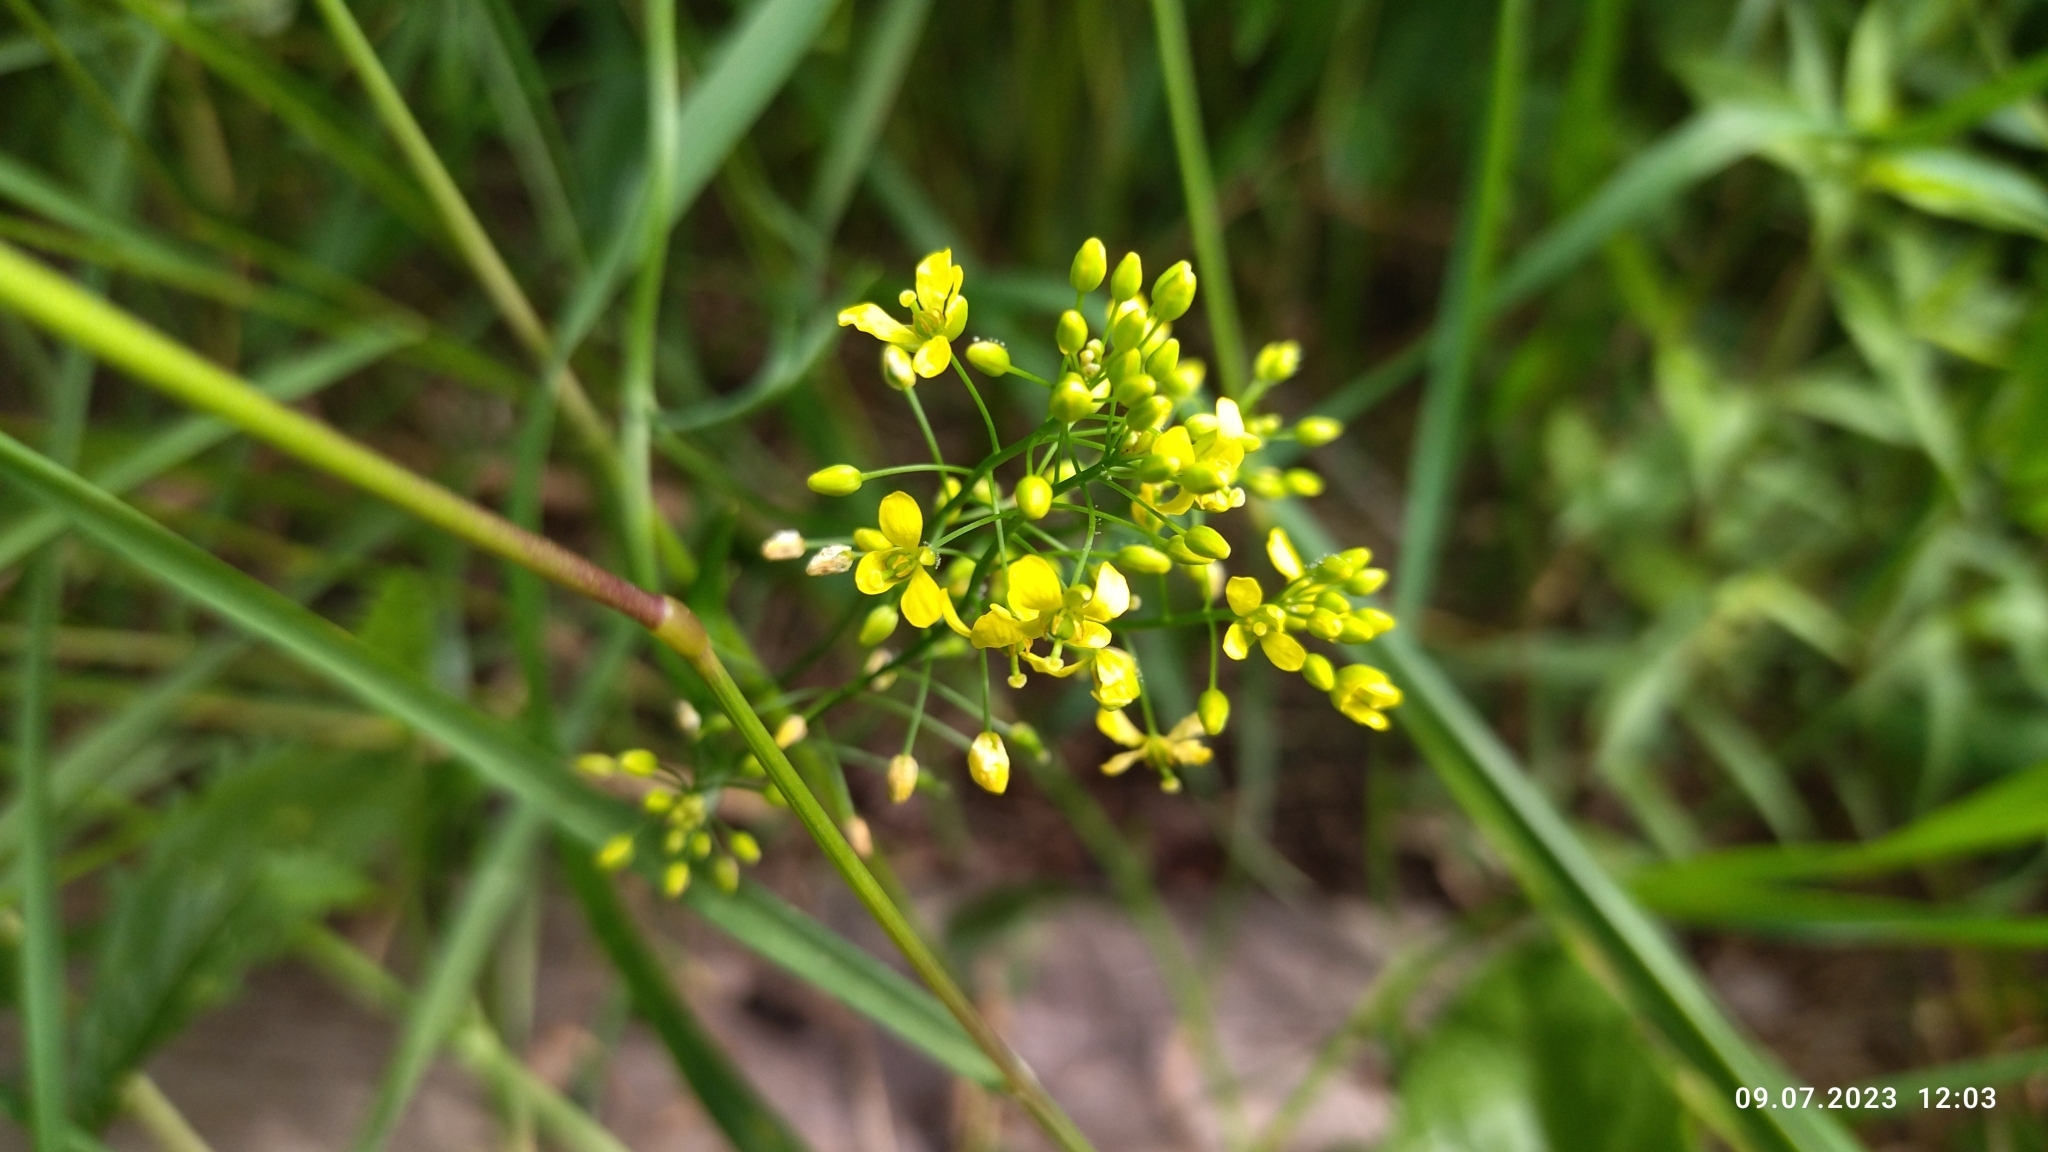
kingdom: Plantae
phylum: Tracheophyta
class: Magnoliopsida
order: Brassicales
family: Brassicaceae
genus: Rorippa
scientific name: Rorippa anceps
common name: Rorippa
